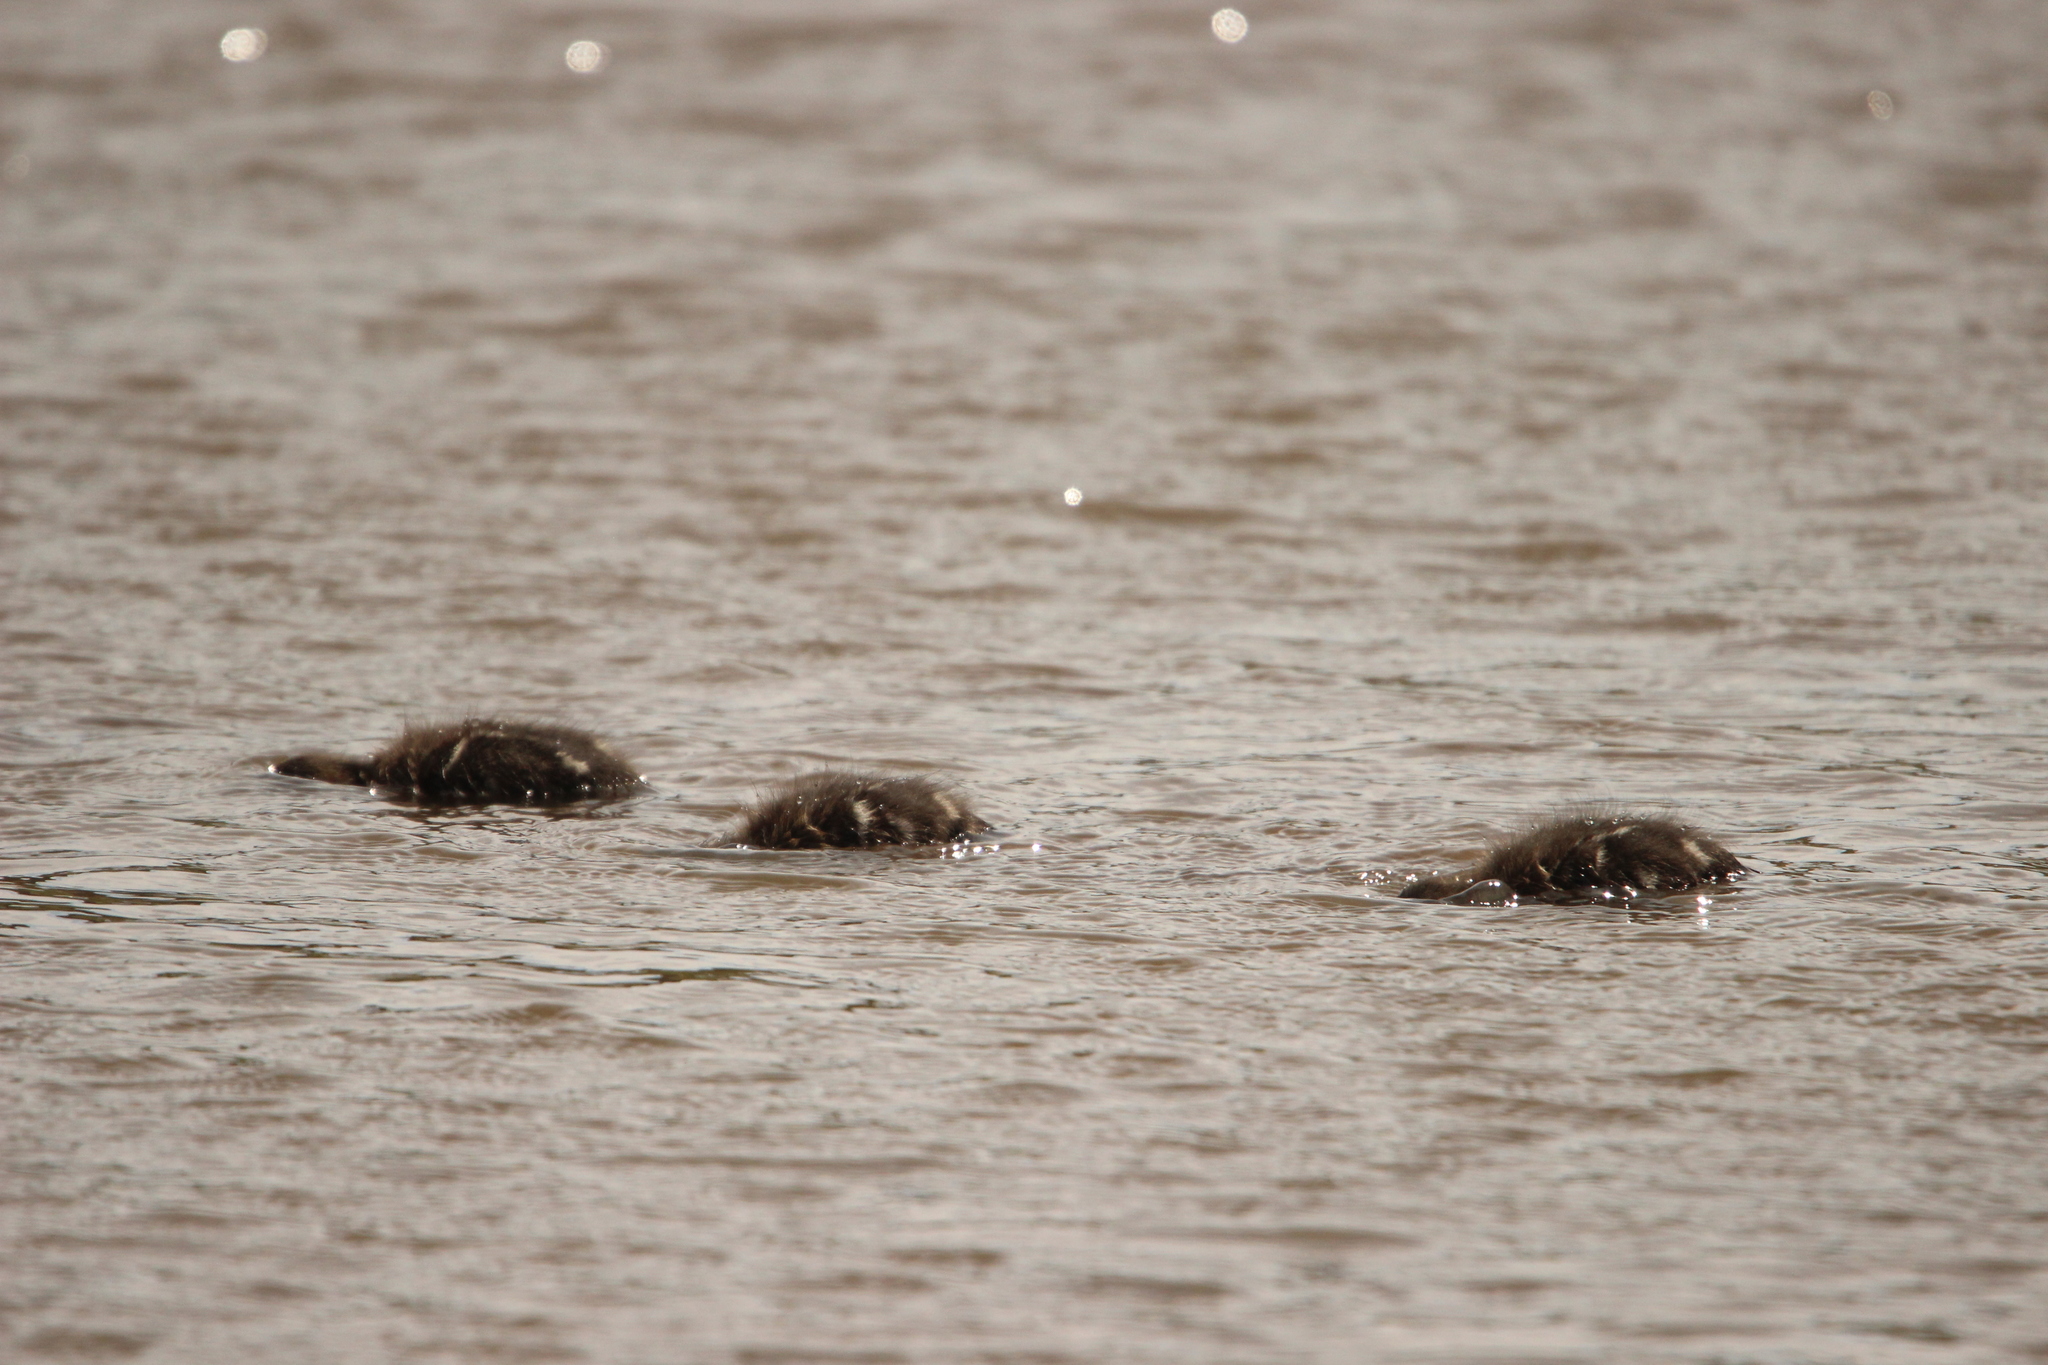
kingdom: Animalia
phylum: Chordata
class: Aves
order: Anseriformes
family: Anatidae
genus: Anas
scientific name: Anas castanea
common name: Chestnut teal
